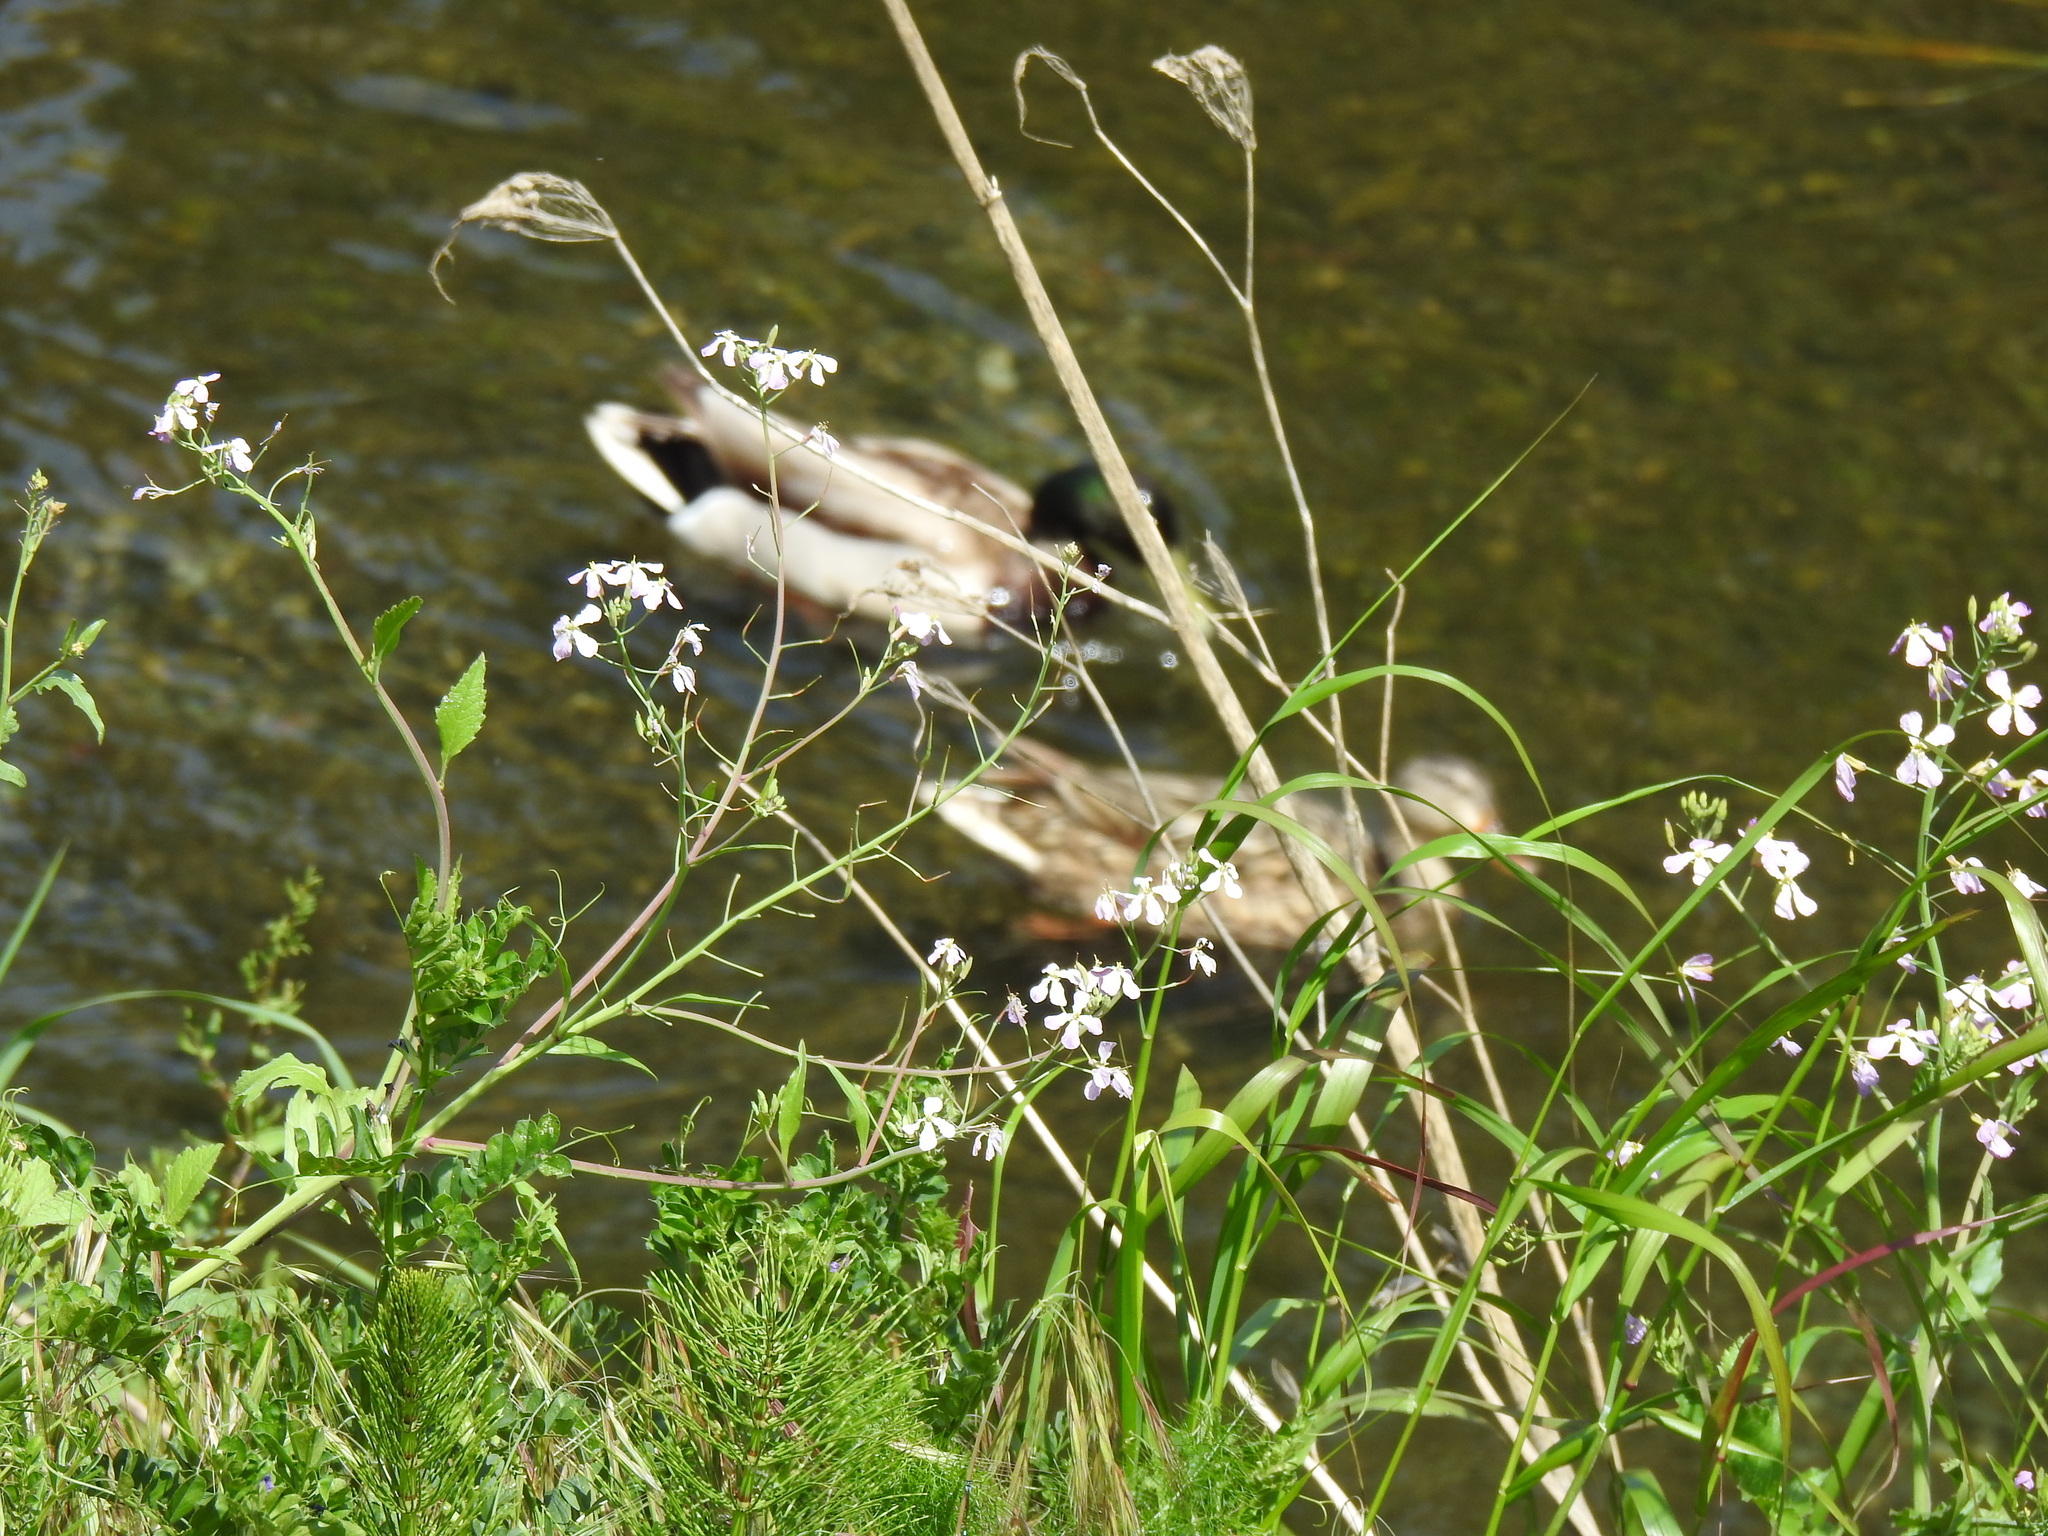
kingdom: Animalia
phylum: Chordata
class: Aves
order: Anseriformes
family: Anatidae
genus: Anas
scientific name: Anas platyrhynchos
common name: Mallard
